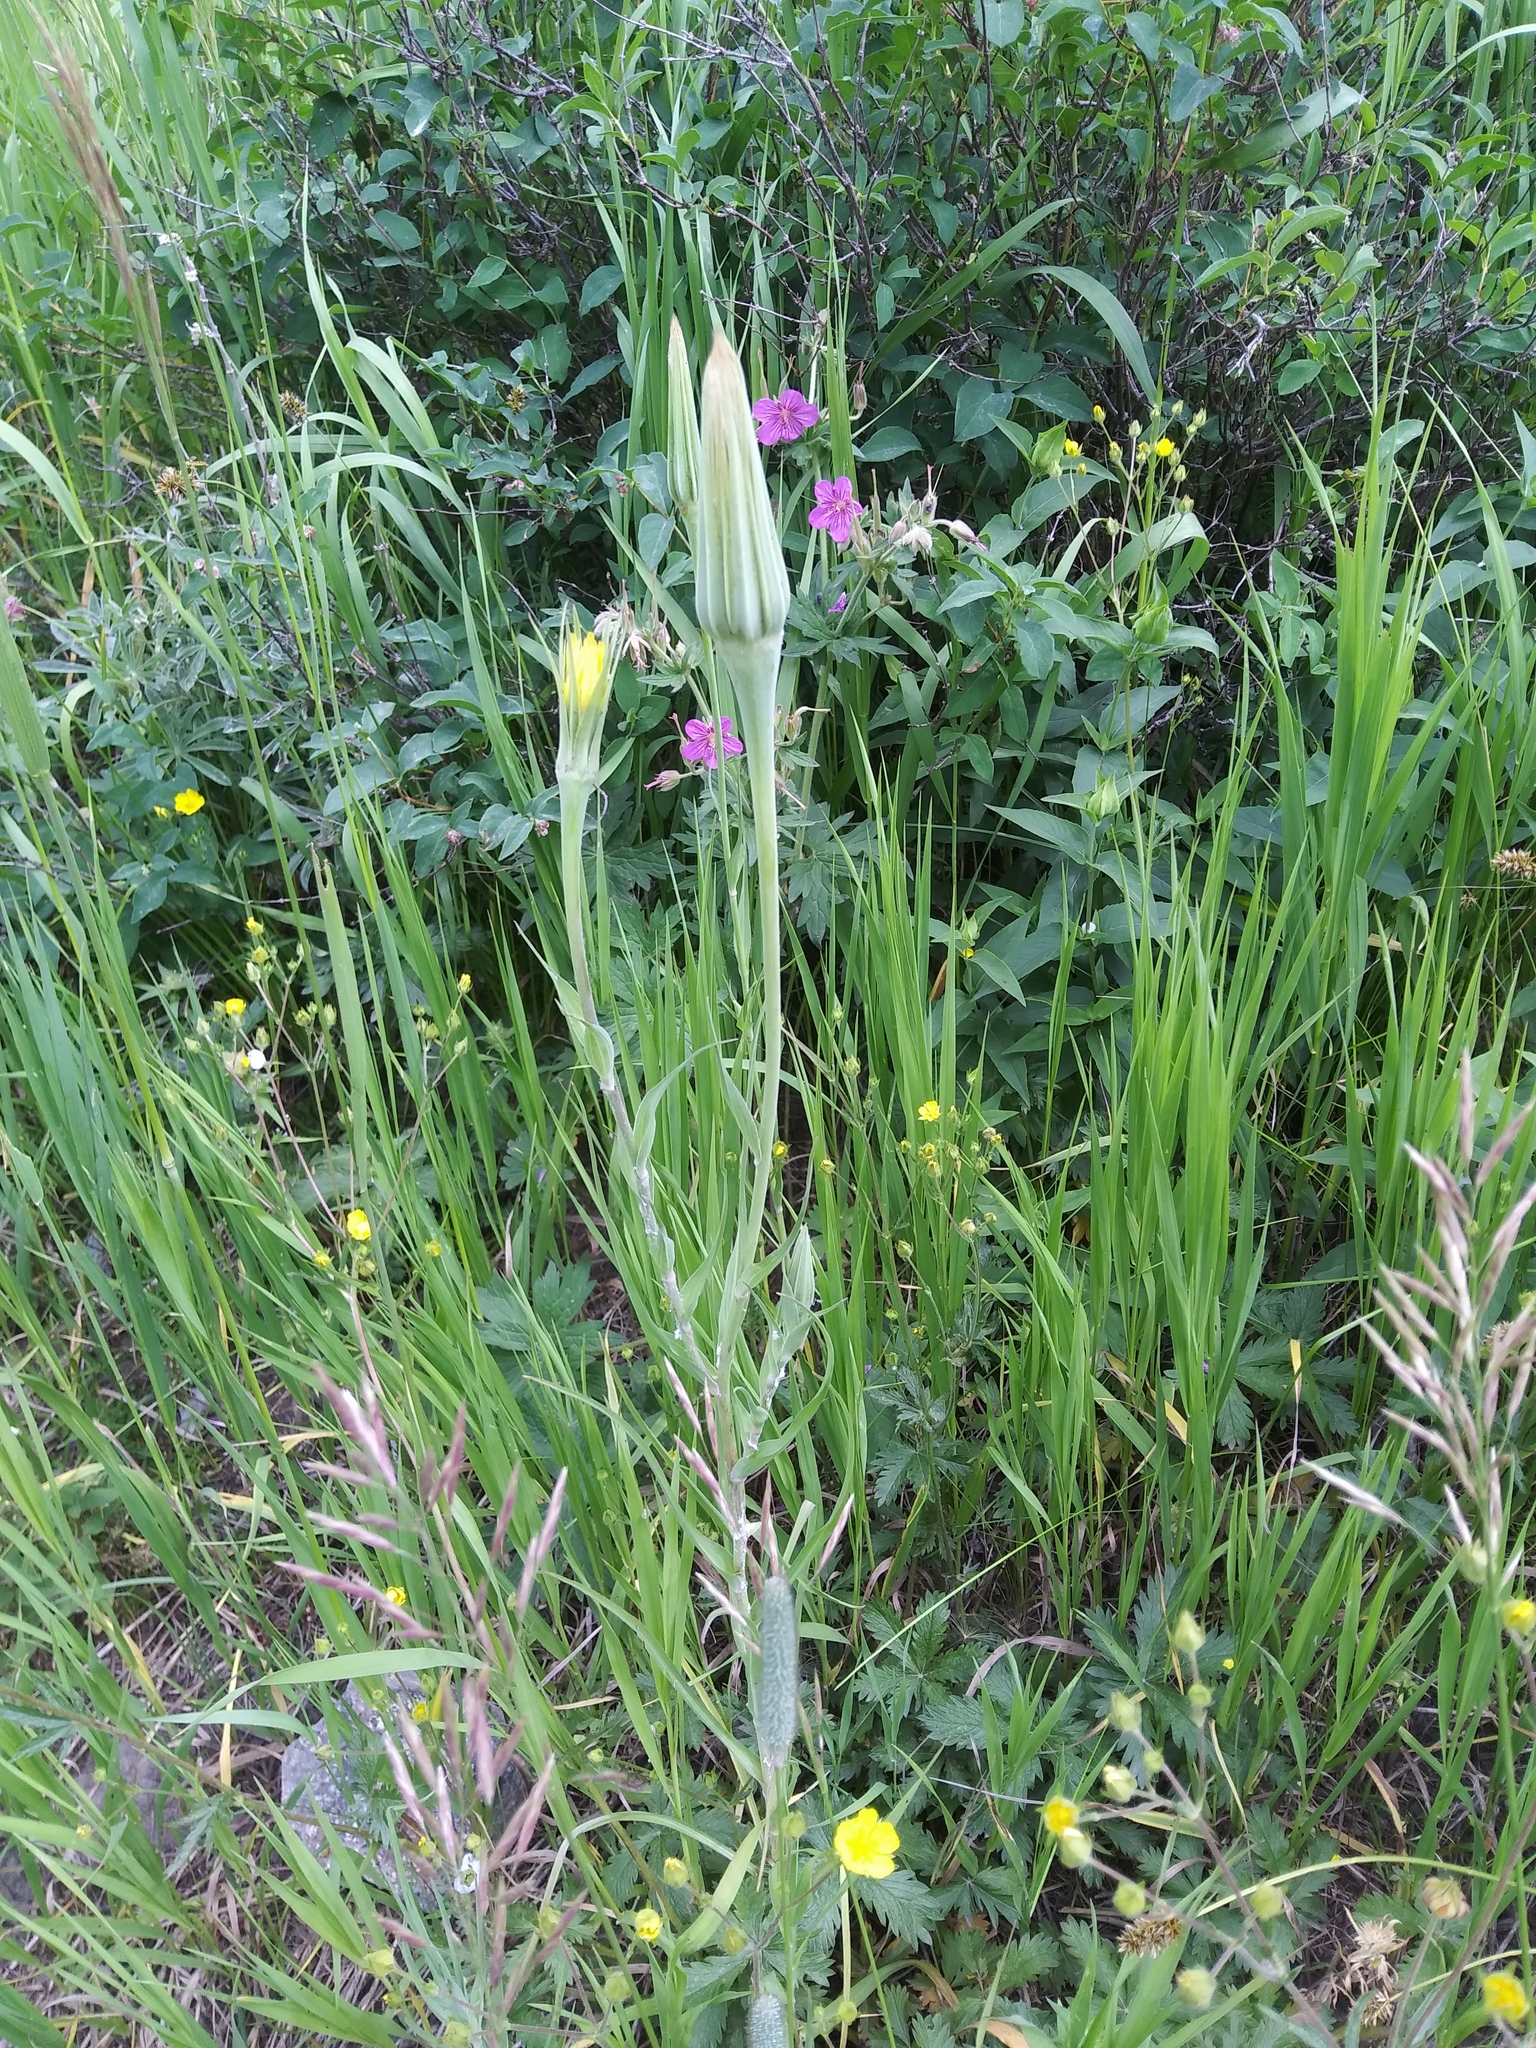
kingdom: Plantae
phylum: Tracheophyta
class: Magnoliopsida
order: Asterales
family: Asteraceae
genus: Tragopogon
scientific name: Tragopogon dubius
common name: Yellow salsify
